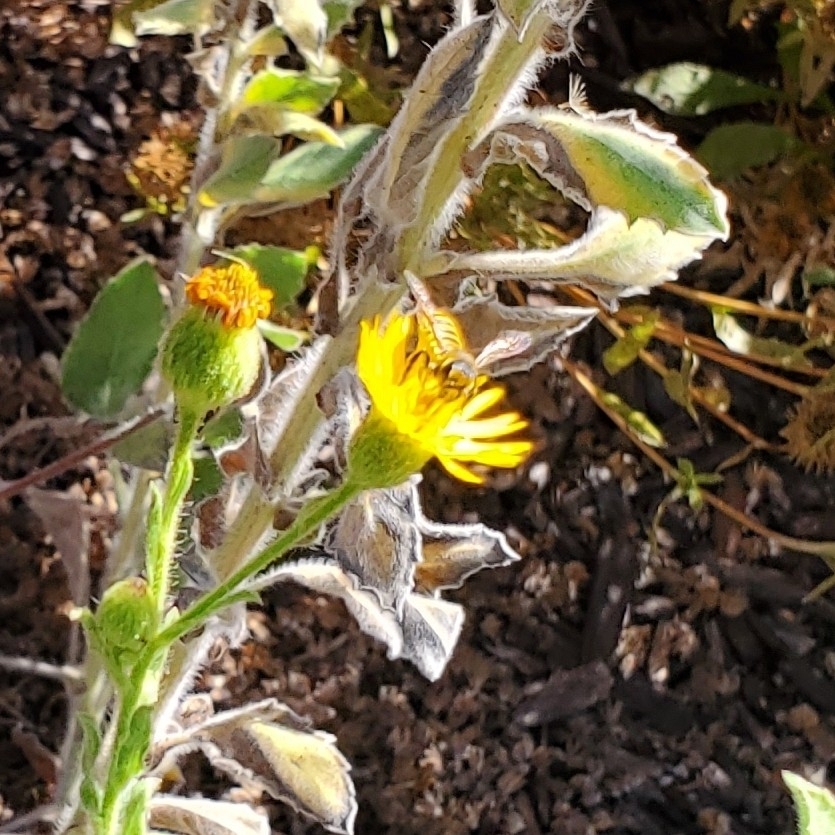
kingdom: Animalia
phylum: Arthropoda
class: Insecta
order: Hymenoptera
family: Megachilidae
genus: Megachile
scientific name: Megachile fidelis
